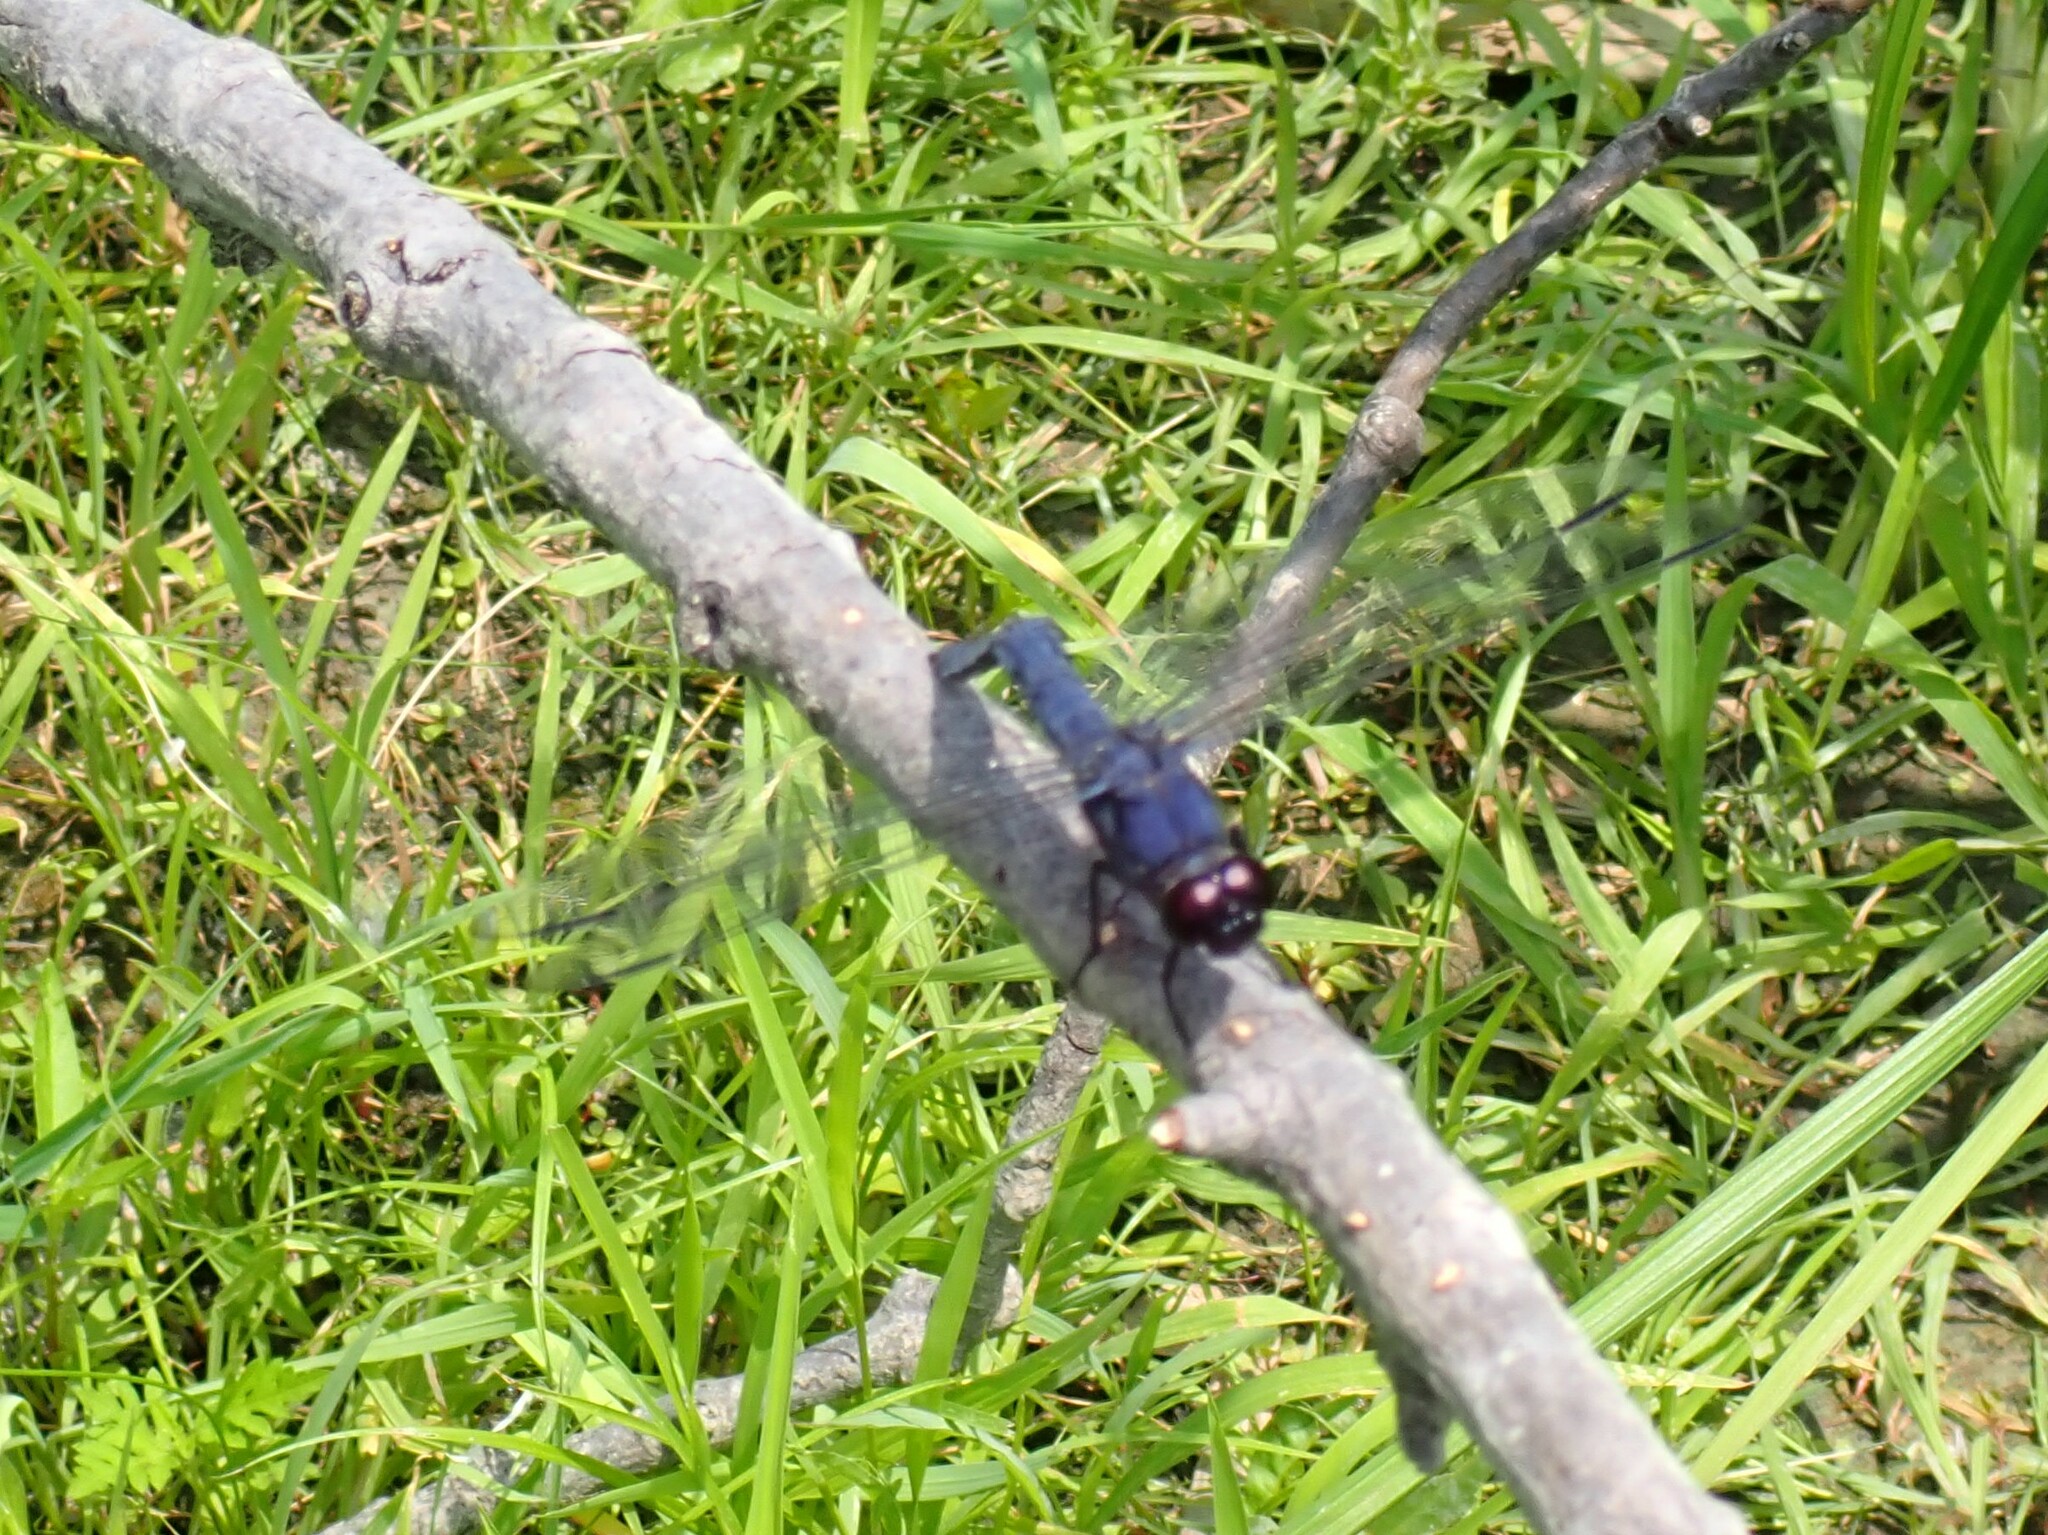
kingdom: Animalia
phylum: Arthropoda
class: Insecta
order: Odonata
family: Libellulidae
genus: Libellula
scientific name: Libellula incesta
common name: Slaty skimmer
